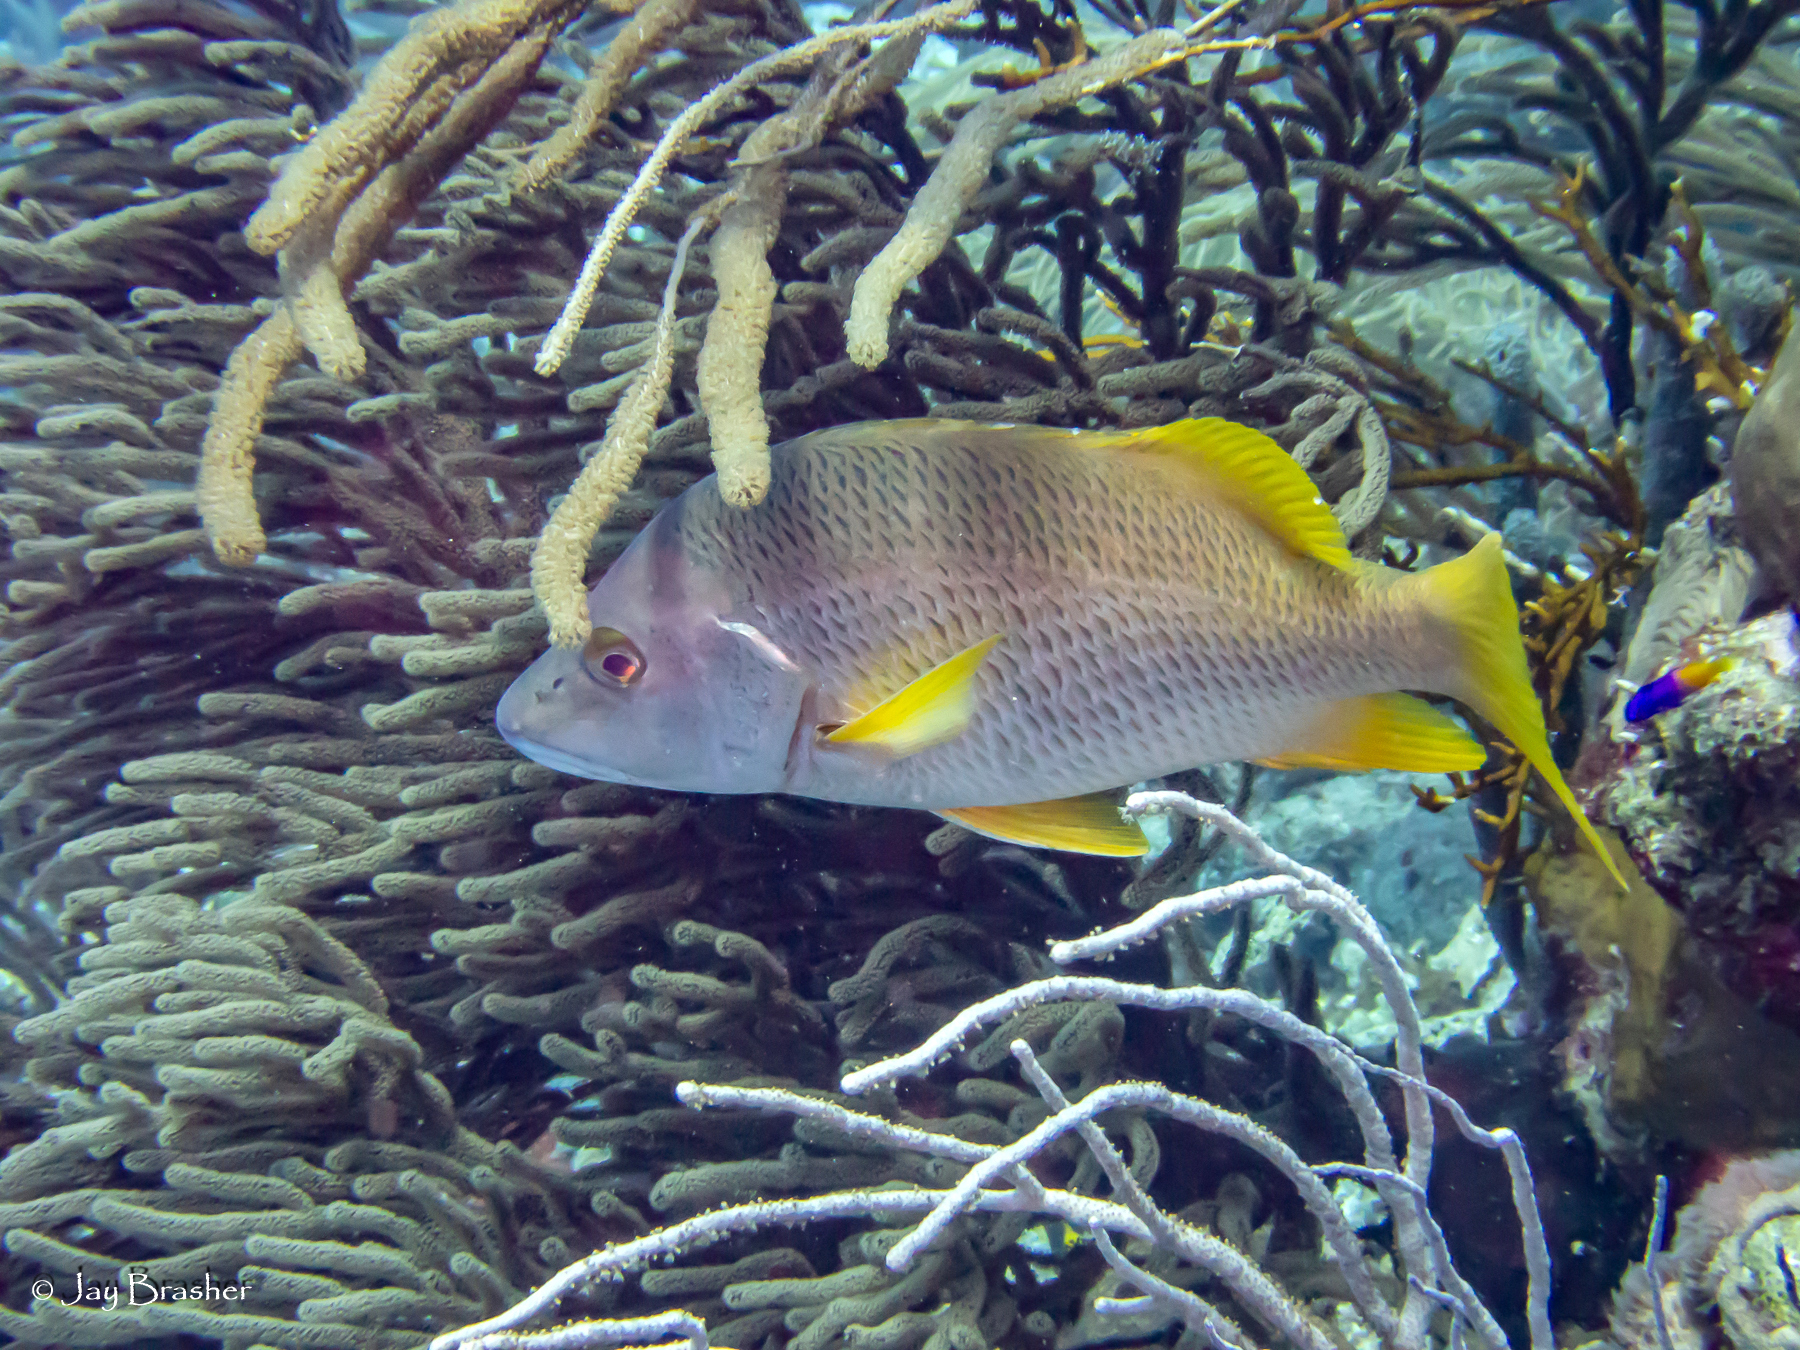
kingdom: Animalia
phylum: Chordata
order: Perciformes
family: Lutjanidae
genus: Lutjanus
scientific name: Lutjanus apodus
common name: Schoolmaster
